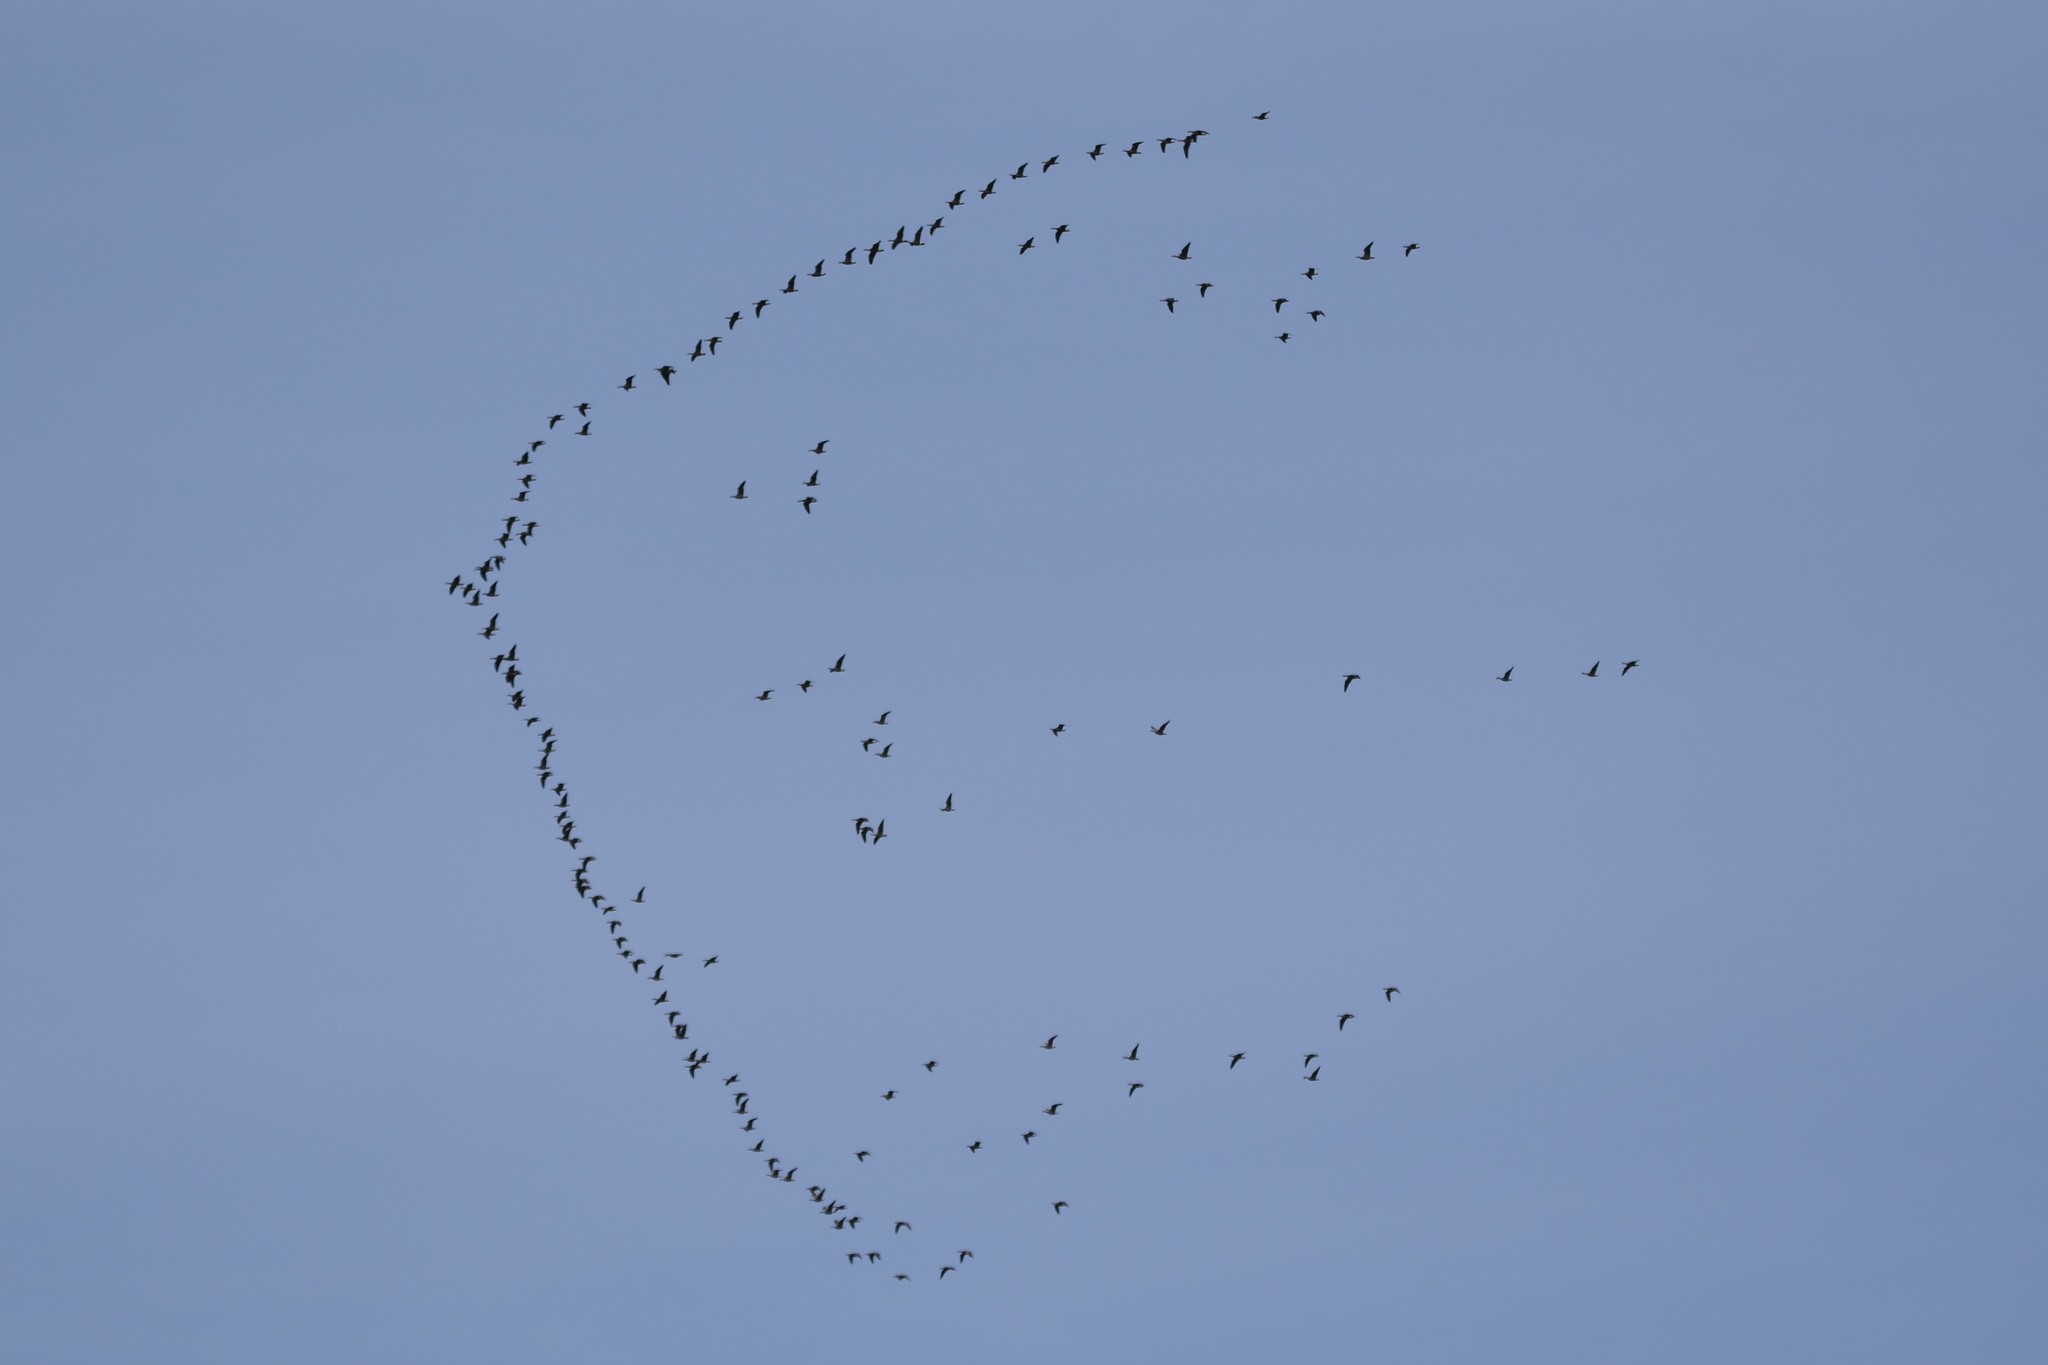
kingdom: Animalia
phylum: Chordata
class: Aves
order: Anseriformes
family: Anatidae
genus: Branta
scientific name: Branta hutchinsii
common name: Cackling goose
